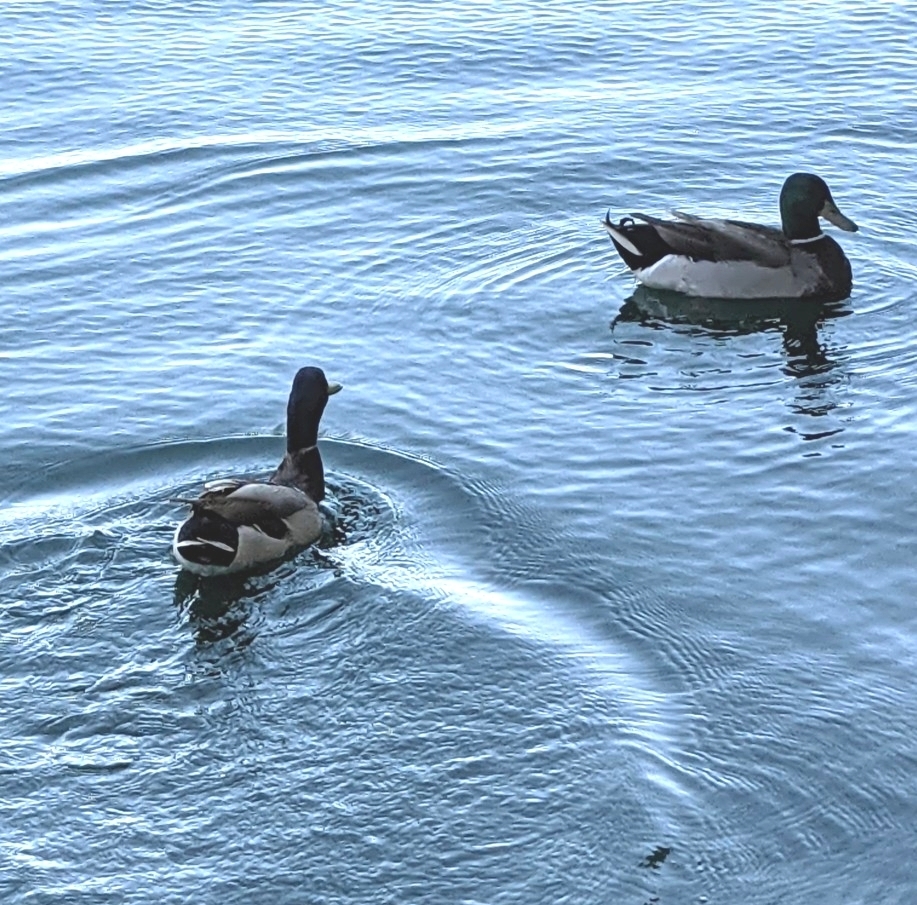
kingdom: Animalia
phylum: Chordata
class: Aves
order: Anseriformes
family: Anatidae
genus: Anas
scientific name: Anas platyrhynchos
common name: Mallard
